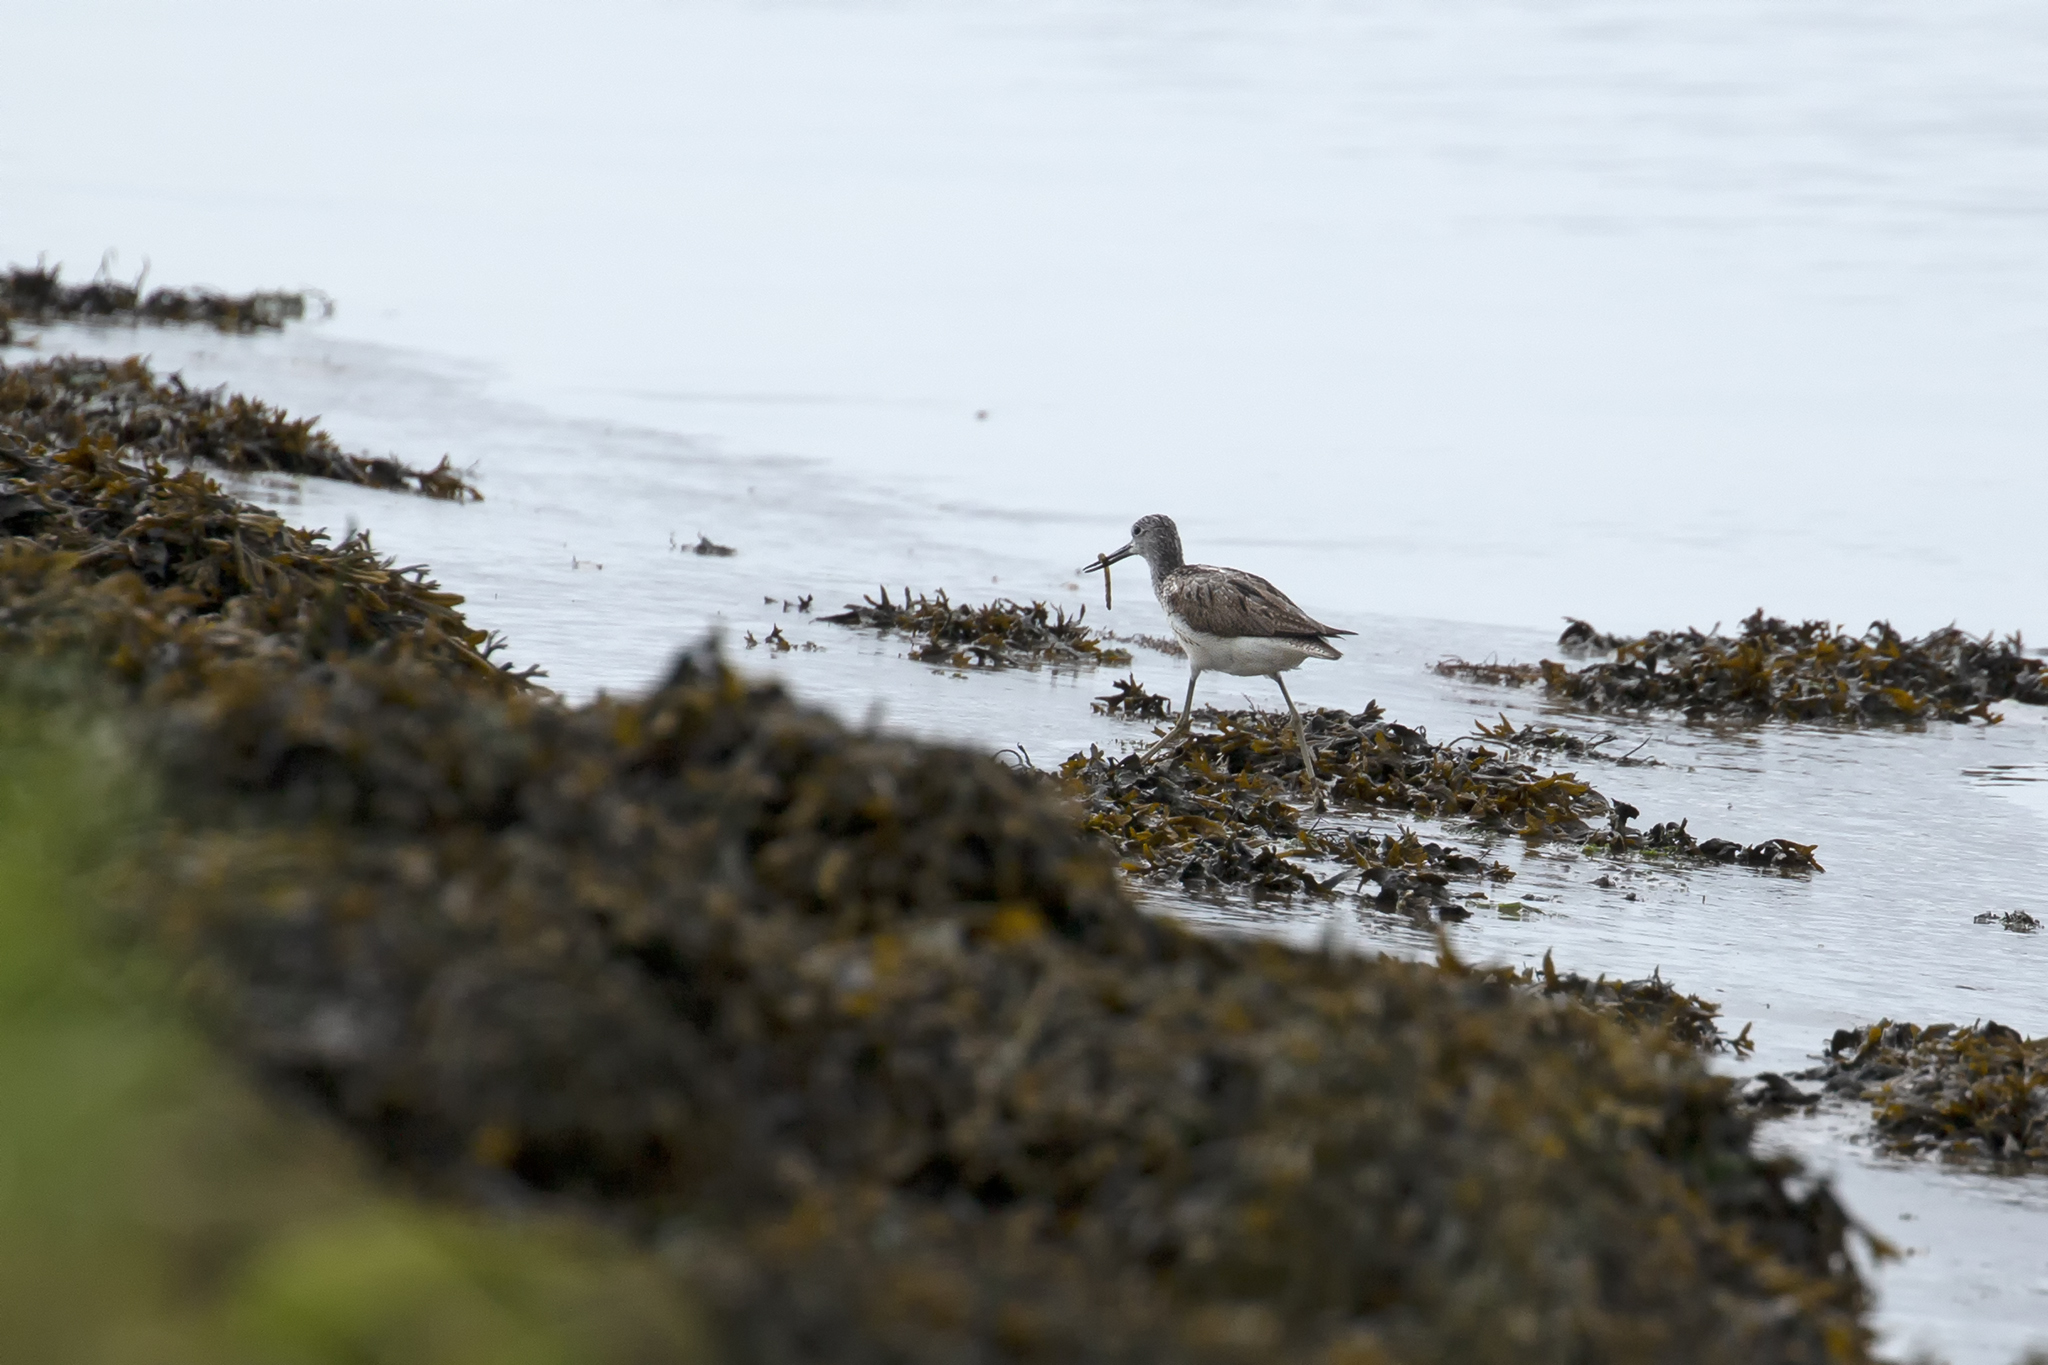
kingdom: Animalia
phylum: Chordata
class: Aves
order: Charadriiformes
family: Scolopacidae
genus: Tringa
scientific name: Tringa nebularia
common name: Common greenshank
